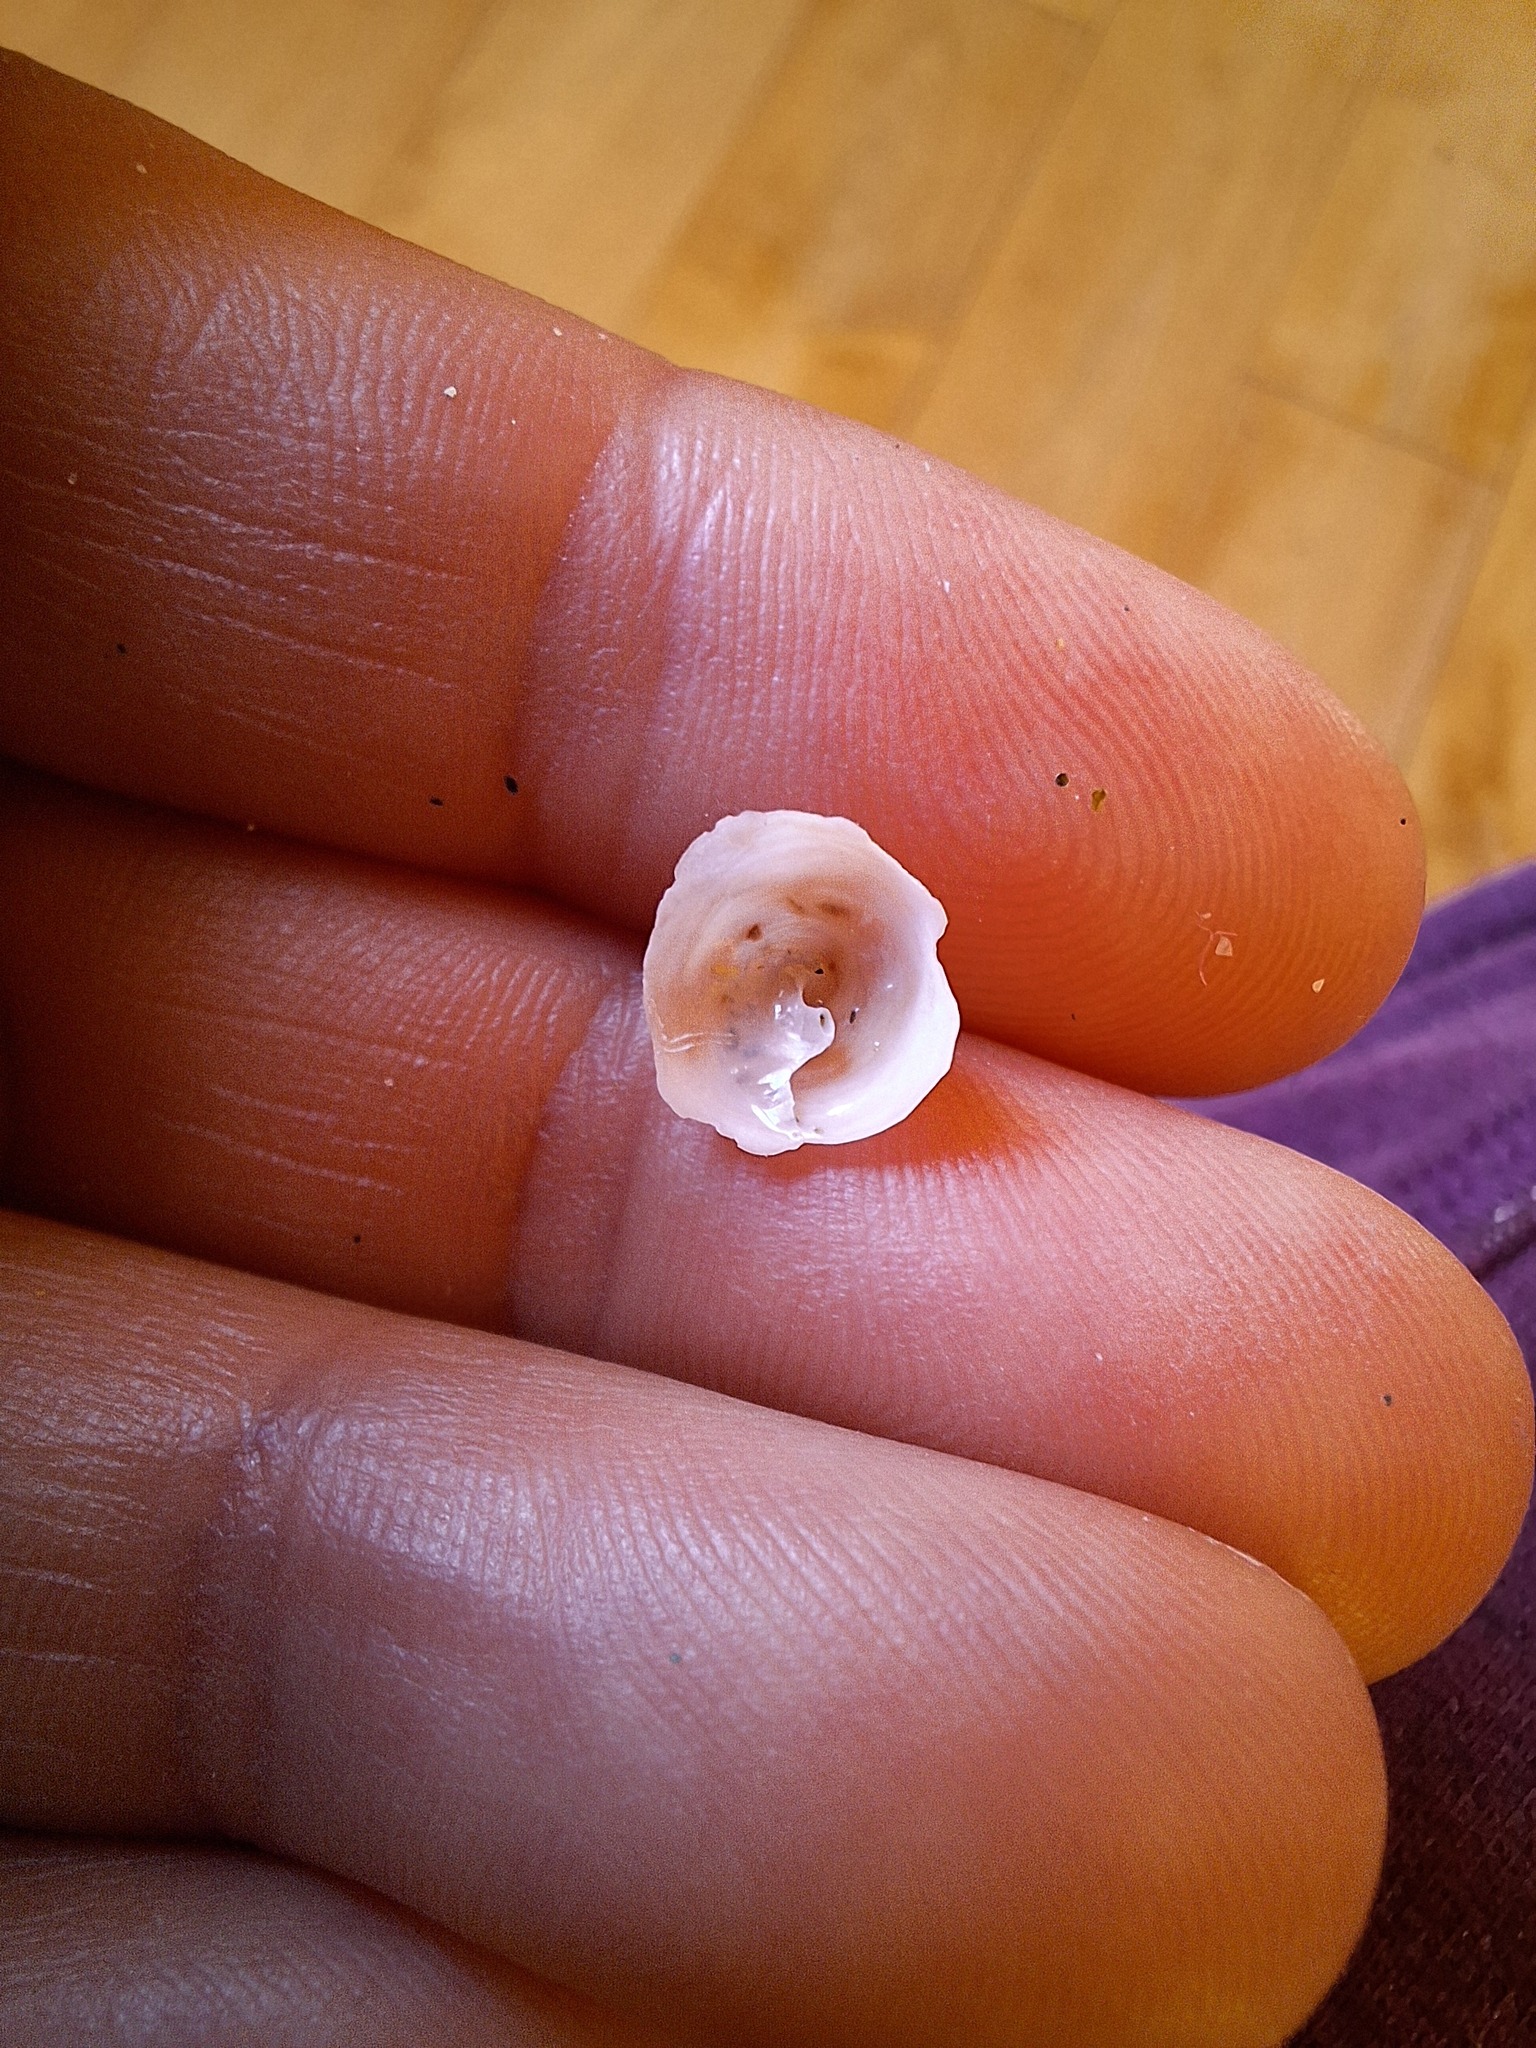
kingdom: Animalia
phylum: Mollusca
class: Gastropoda
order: Littorinimorpha
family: Calyptraeidae
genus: Calyptraea
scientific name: Calyptraea chinensis
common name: Chinaman's hat
